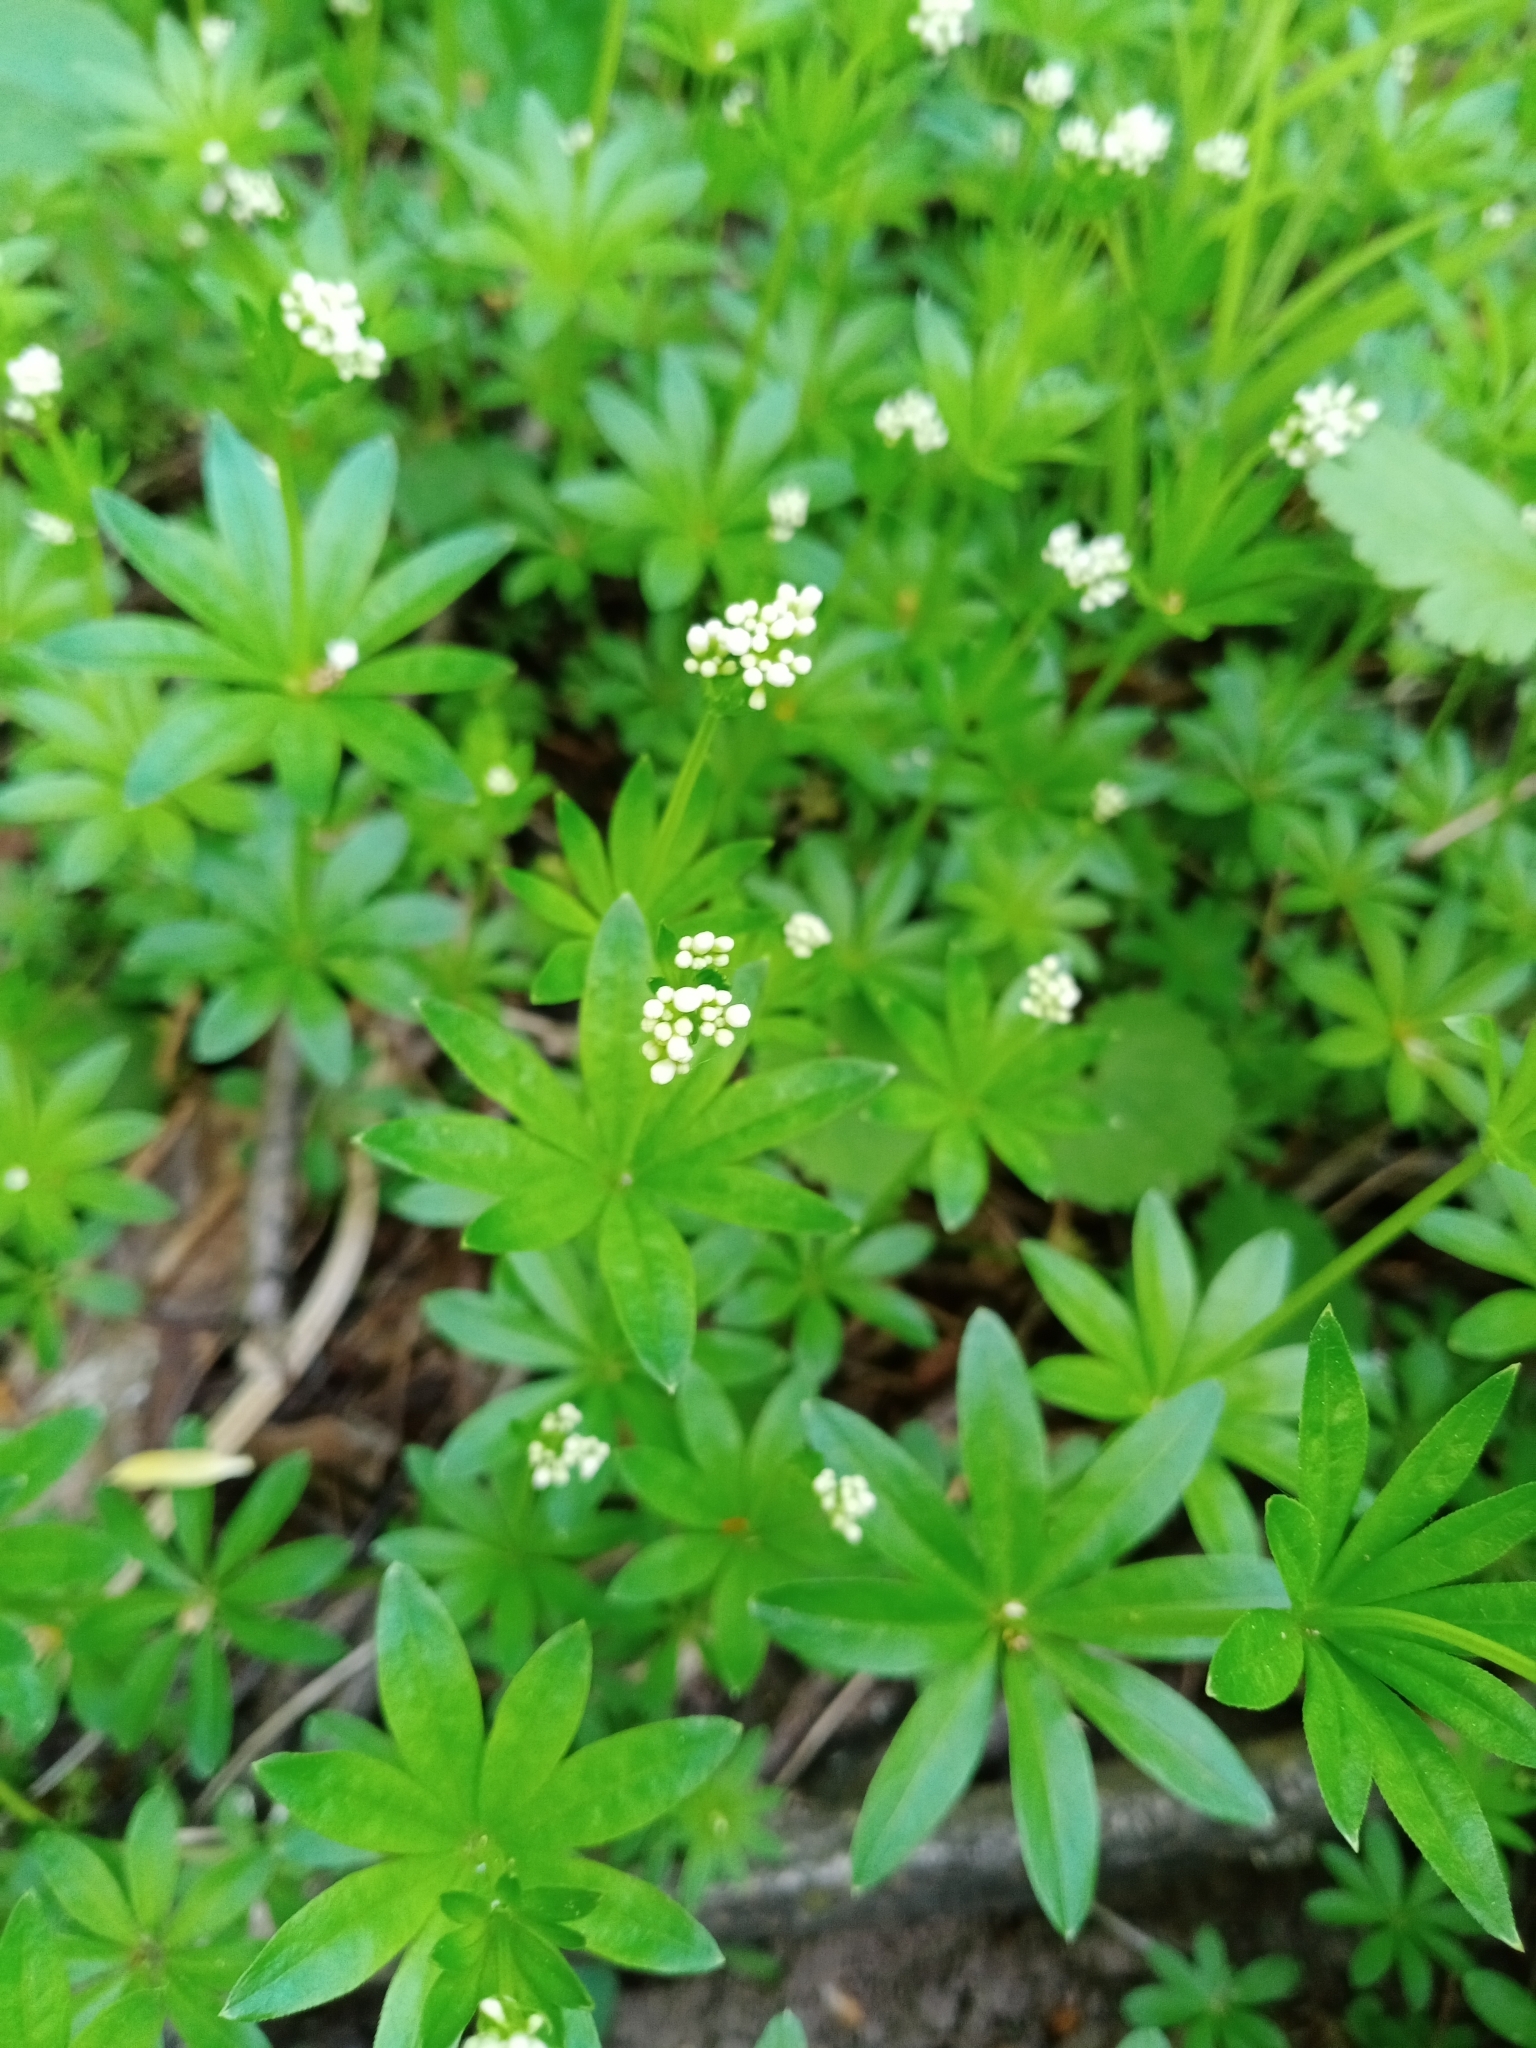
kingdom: Plantae
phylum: Tracheophyta
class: Magnoliopsida
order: Gentianales
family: Rubiaceae
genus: Galium
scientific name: Galium odoratum
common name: Sweet woodruff
